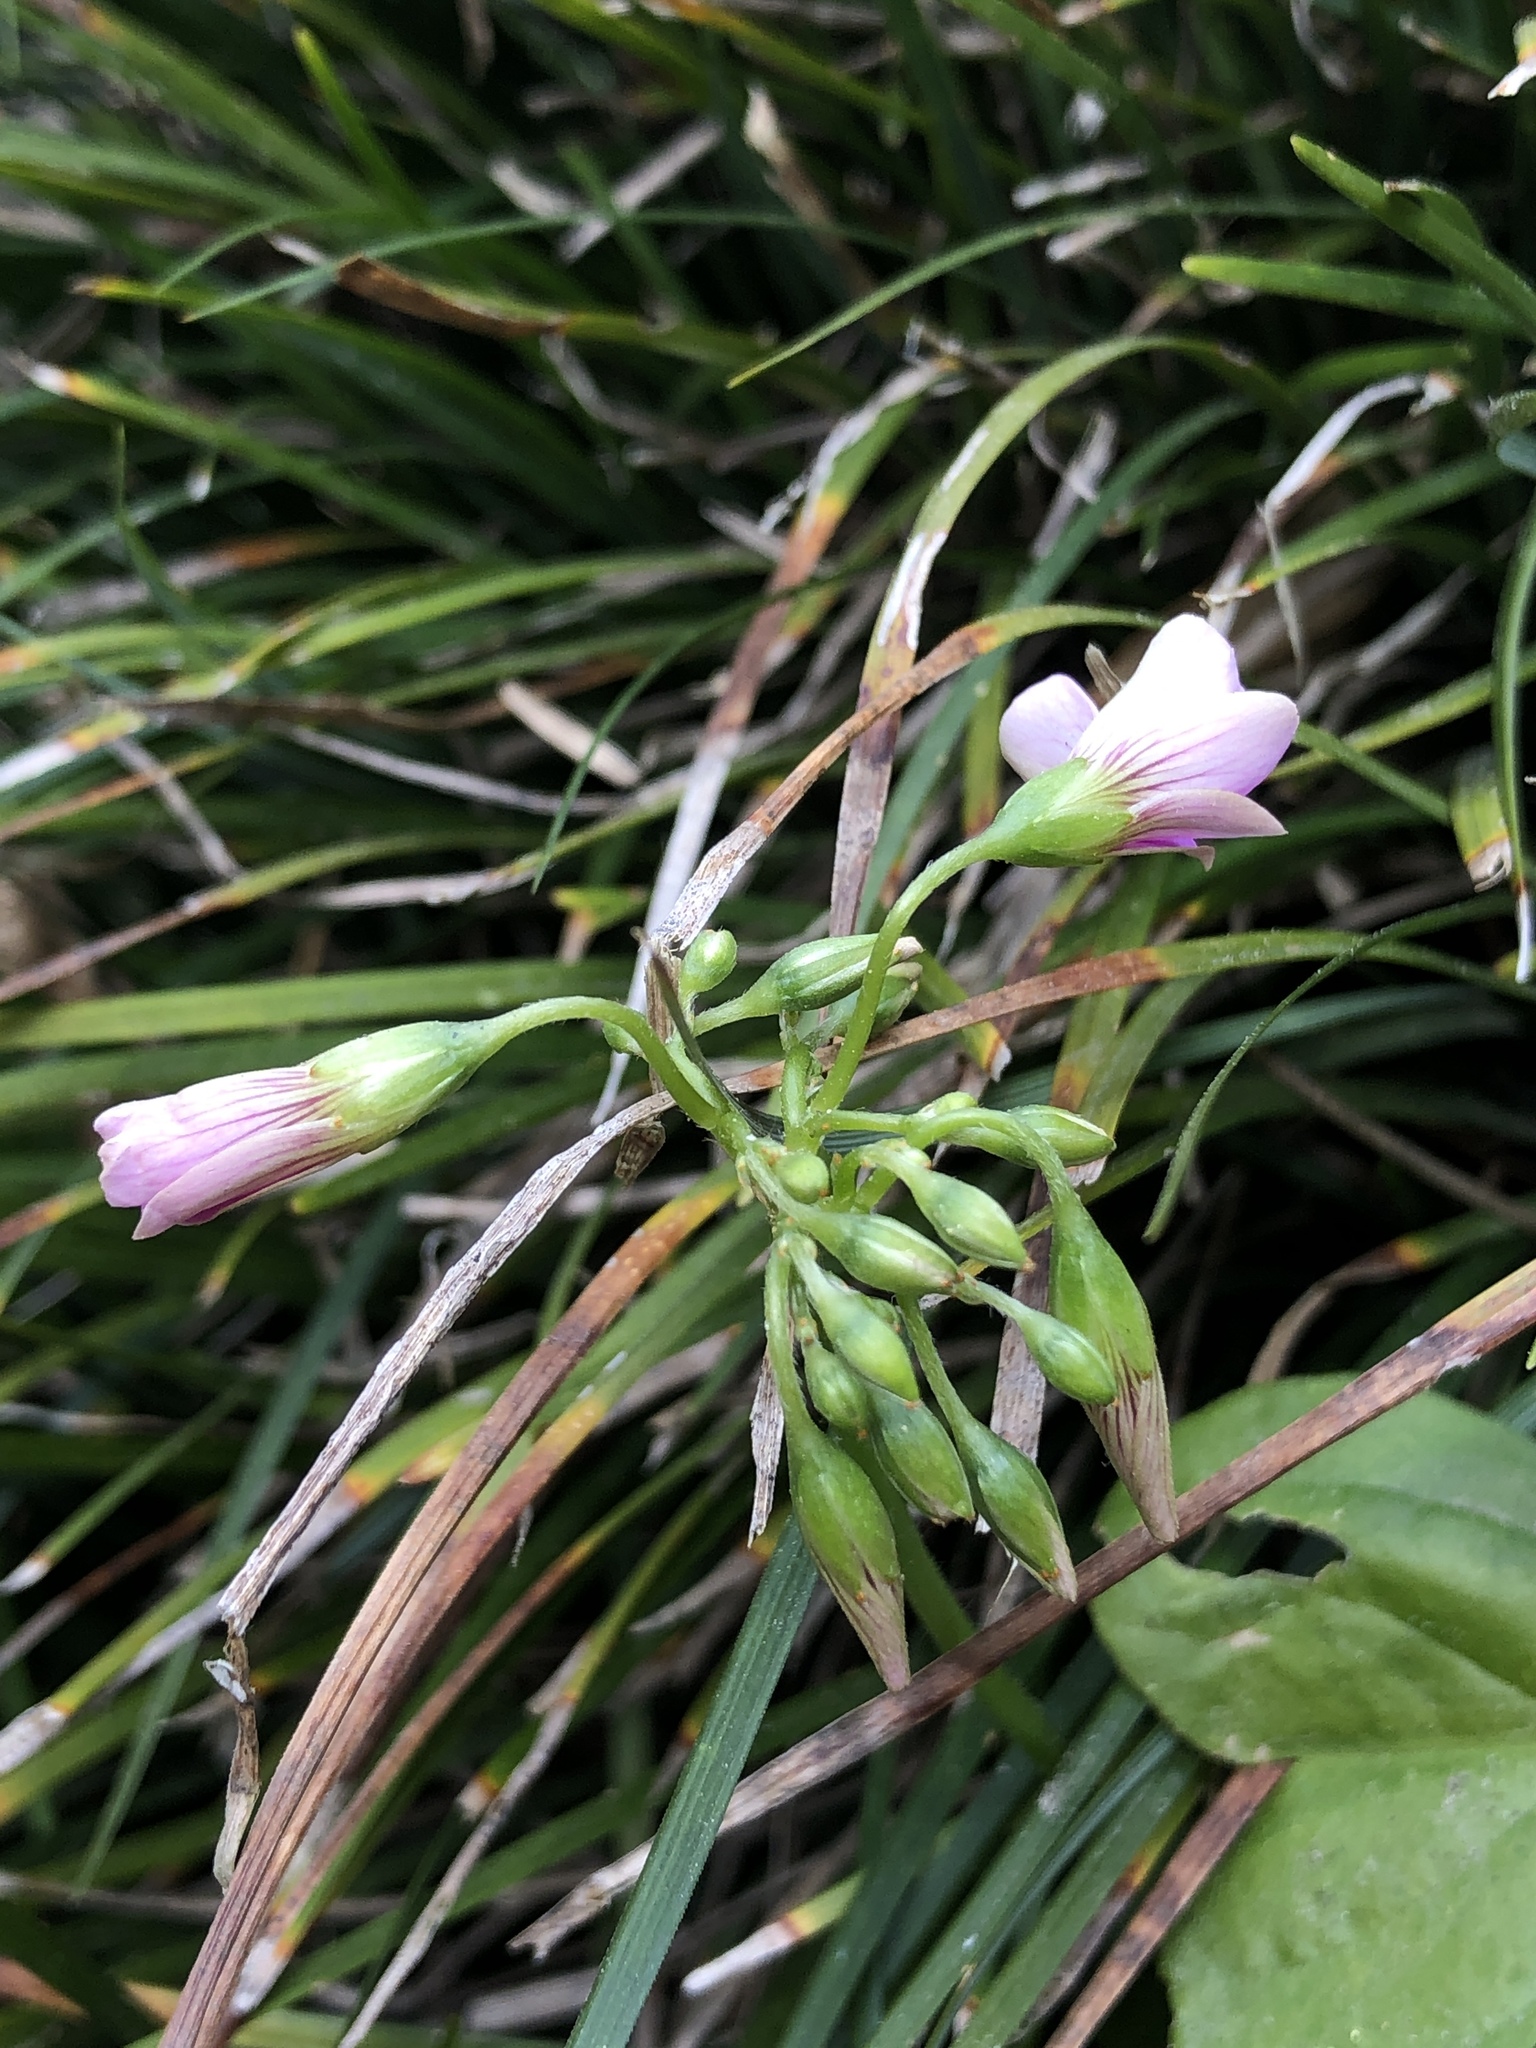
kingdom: Plantae
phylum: Tracheophyta
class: Magnoliopsida
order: Oxalidales
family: Oxalidaceae
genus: Oxalis
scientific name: Oxalis debilis
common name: Large-flowered pink-sorrel
